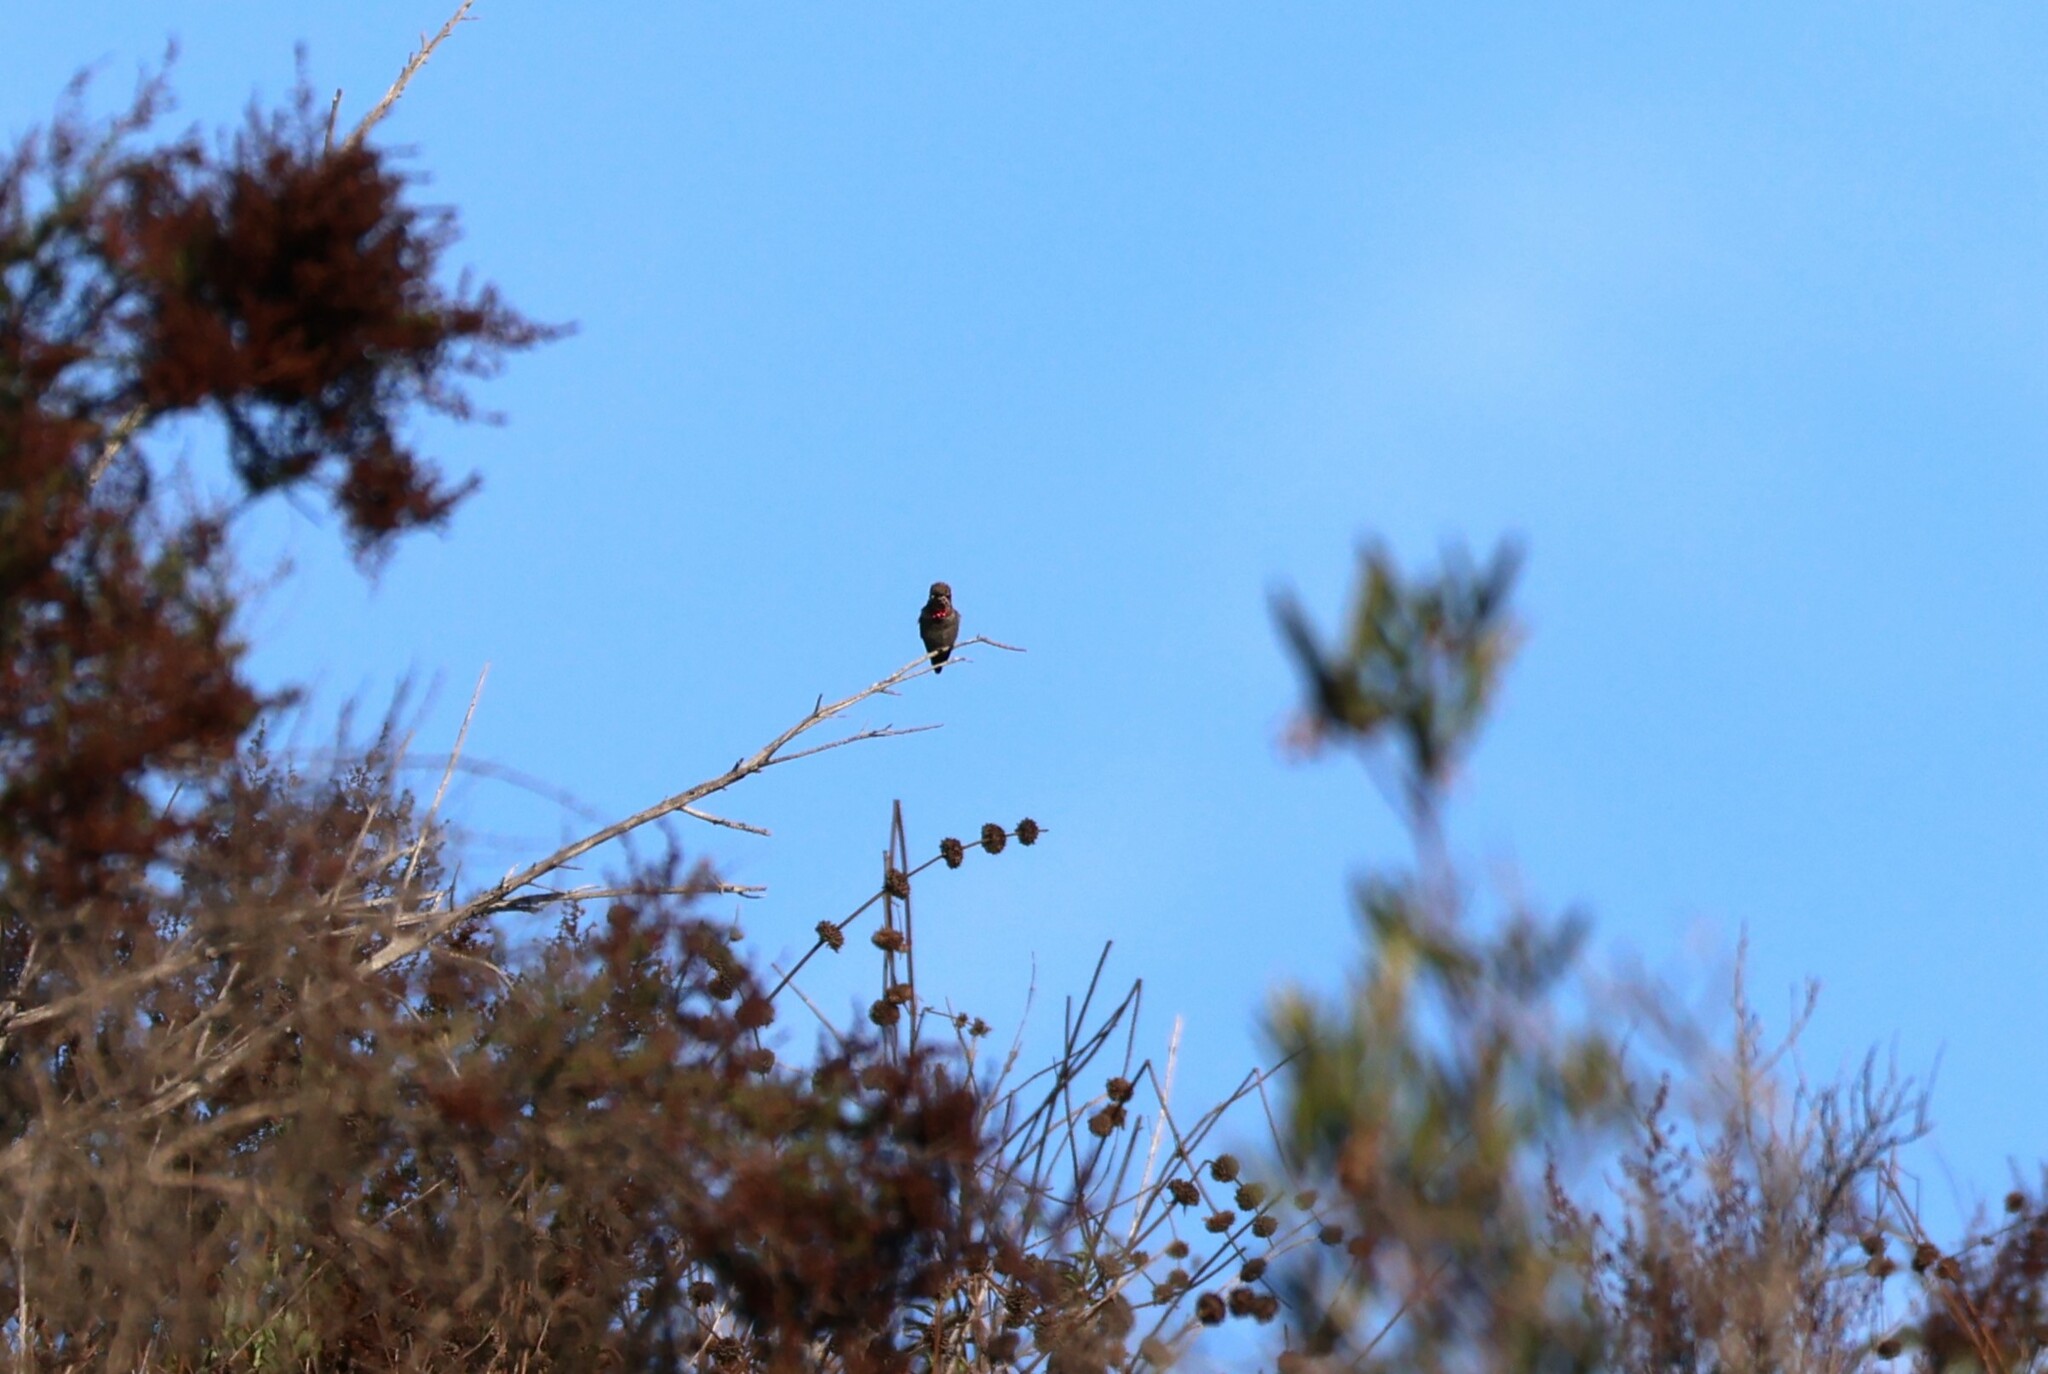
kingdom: Animalia
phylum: Chordata
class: Aves
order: Apodiformes
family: Trochilidae
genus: Calypte
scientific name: Calypte anna
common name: Anna's hummingbird
